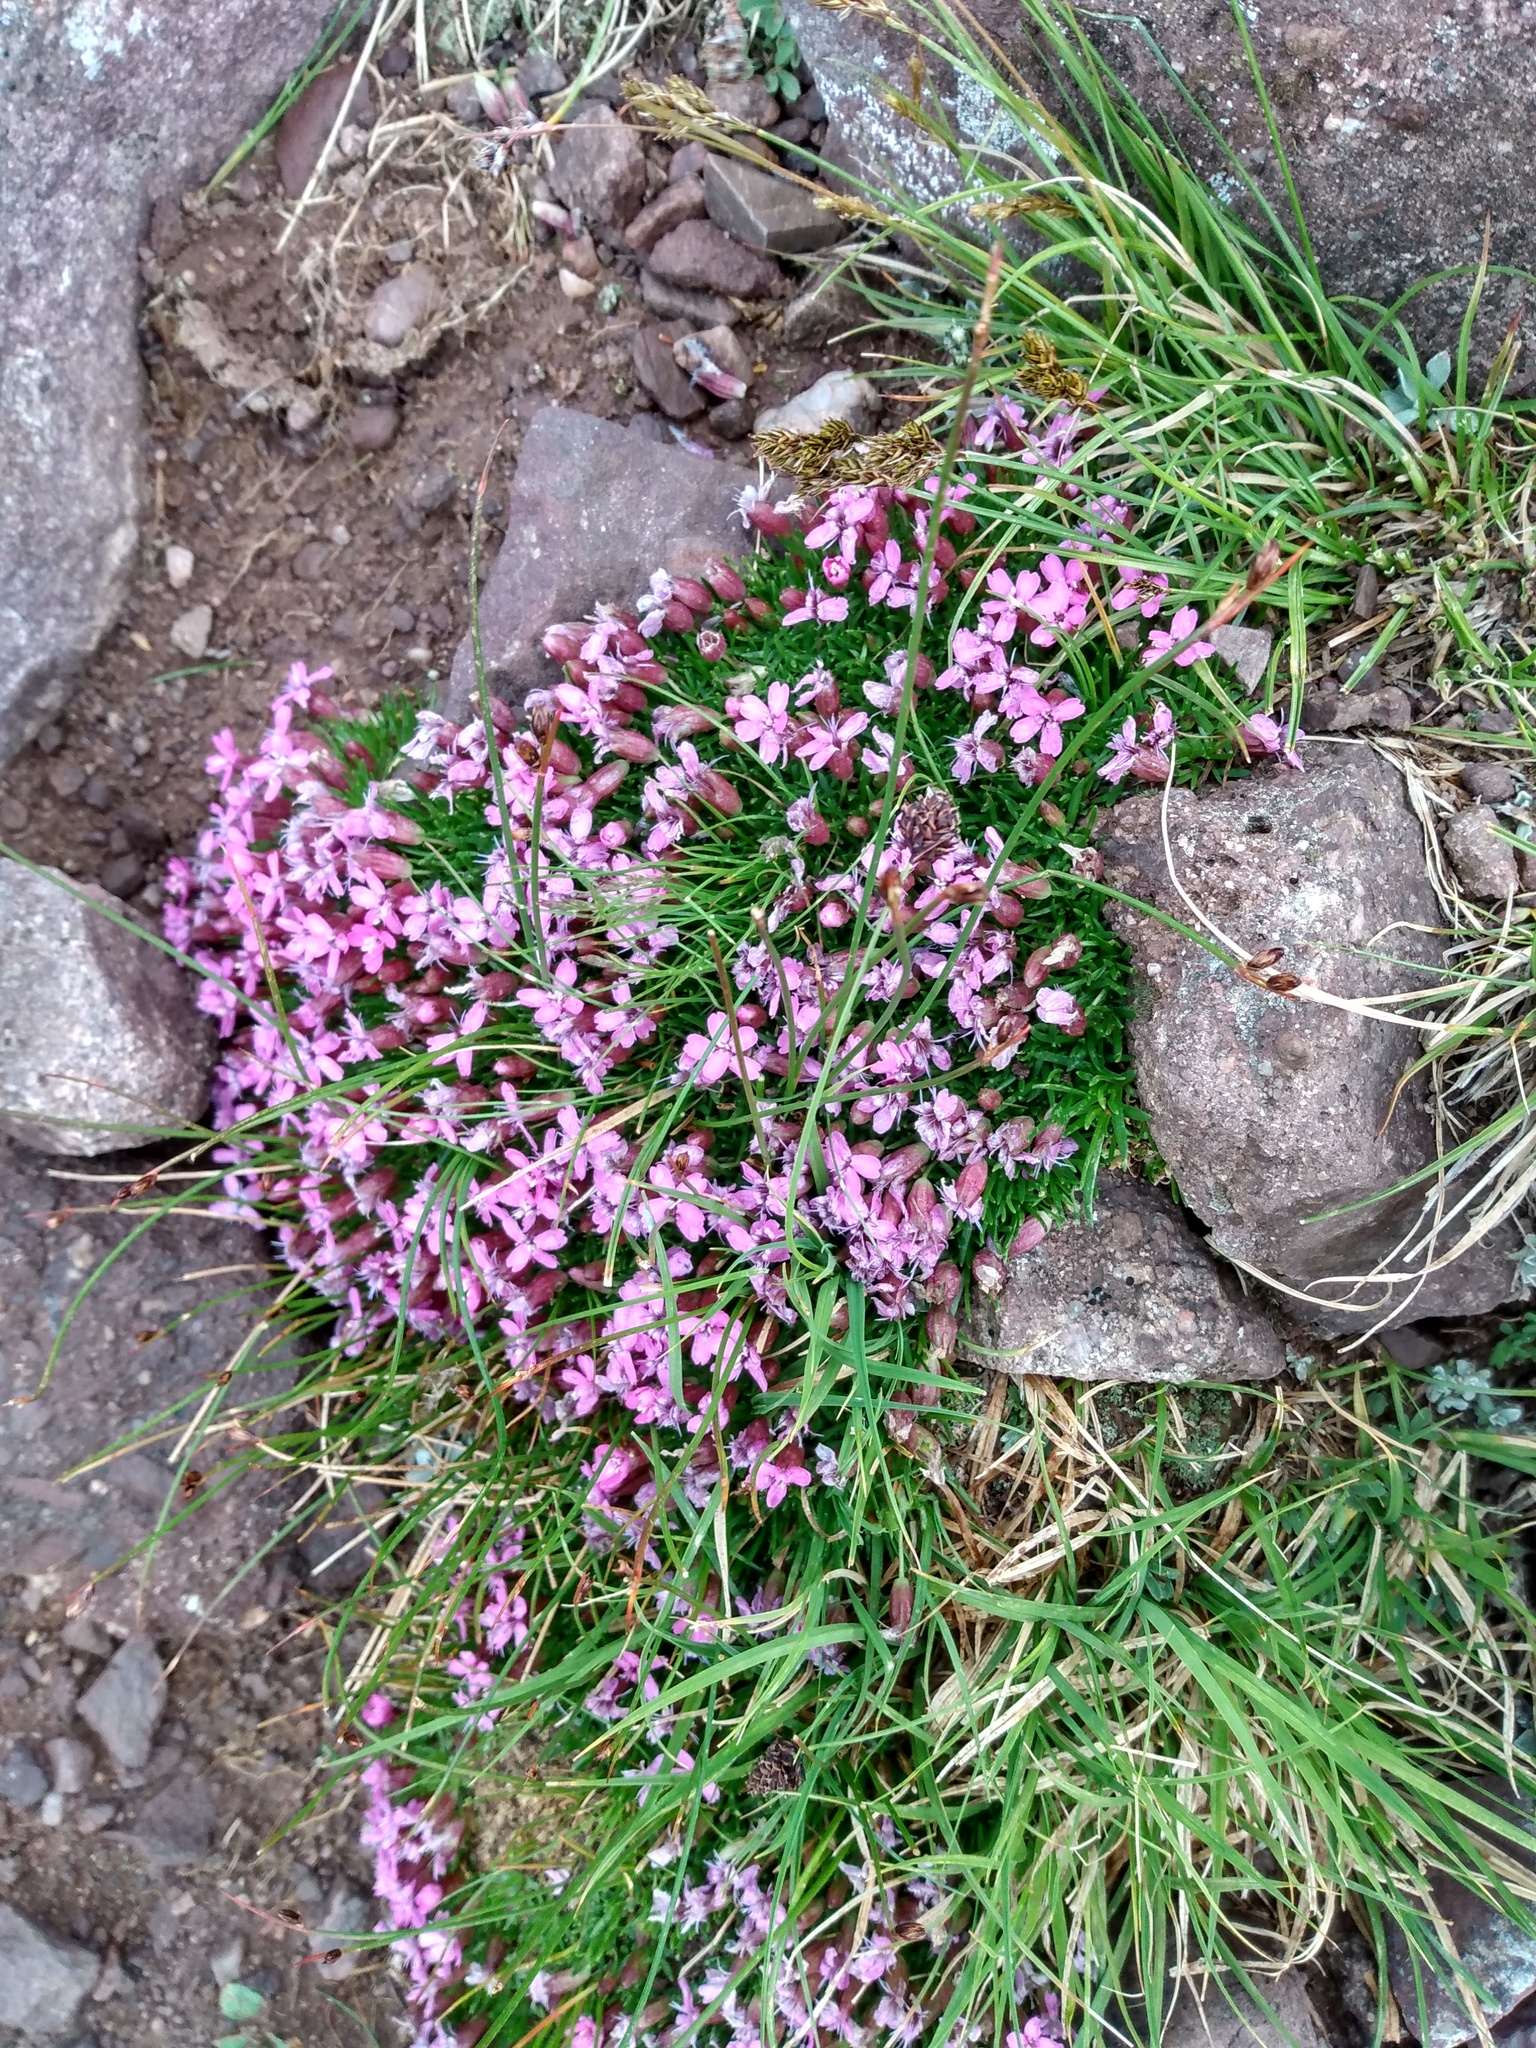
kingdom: Plantae
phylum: Tracheophyta
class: Magnoliopsida
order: Caryophyllales
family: Caryophyllaceae
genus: Silene
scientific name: Silene acaulis
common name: Moss campion
